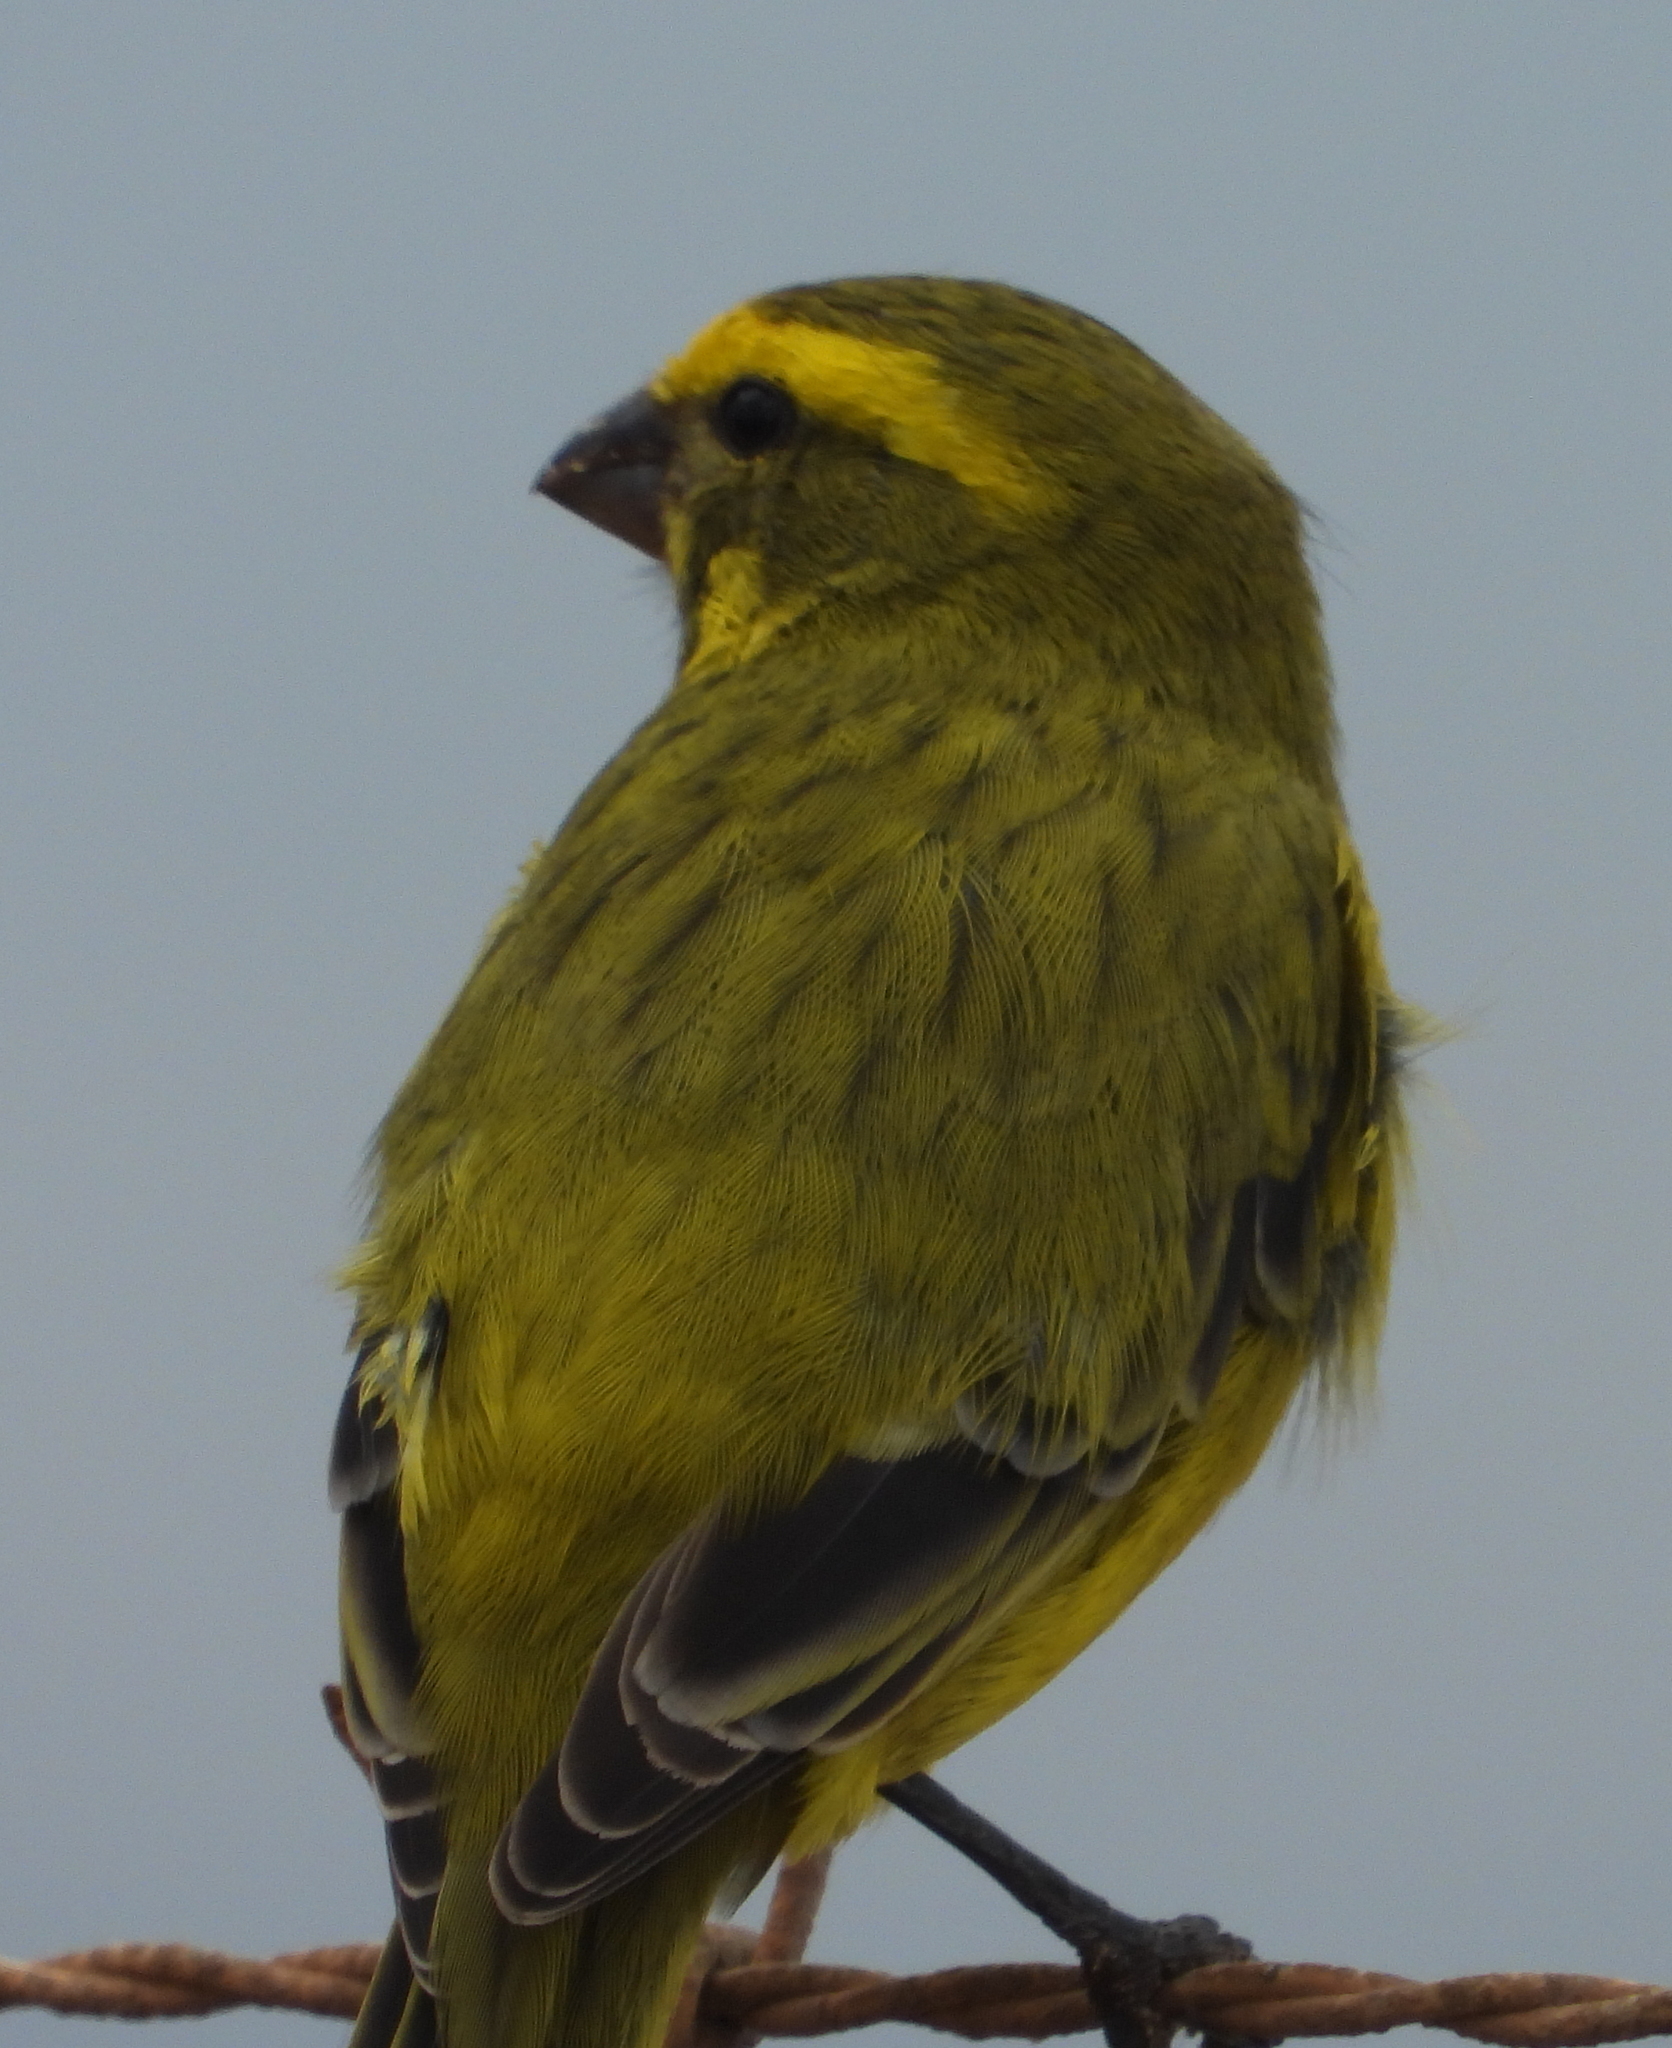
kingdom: Animalia
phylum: Chordata
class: Aves
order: Passeriformes
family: Fringillidae
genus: Crithagra
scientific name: Crithagra flaviventris
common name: Yellow canary
